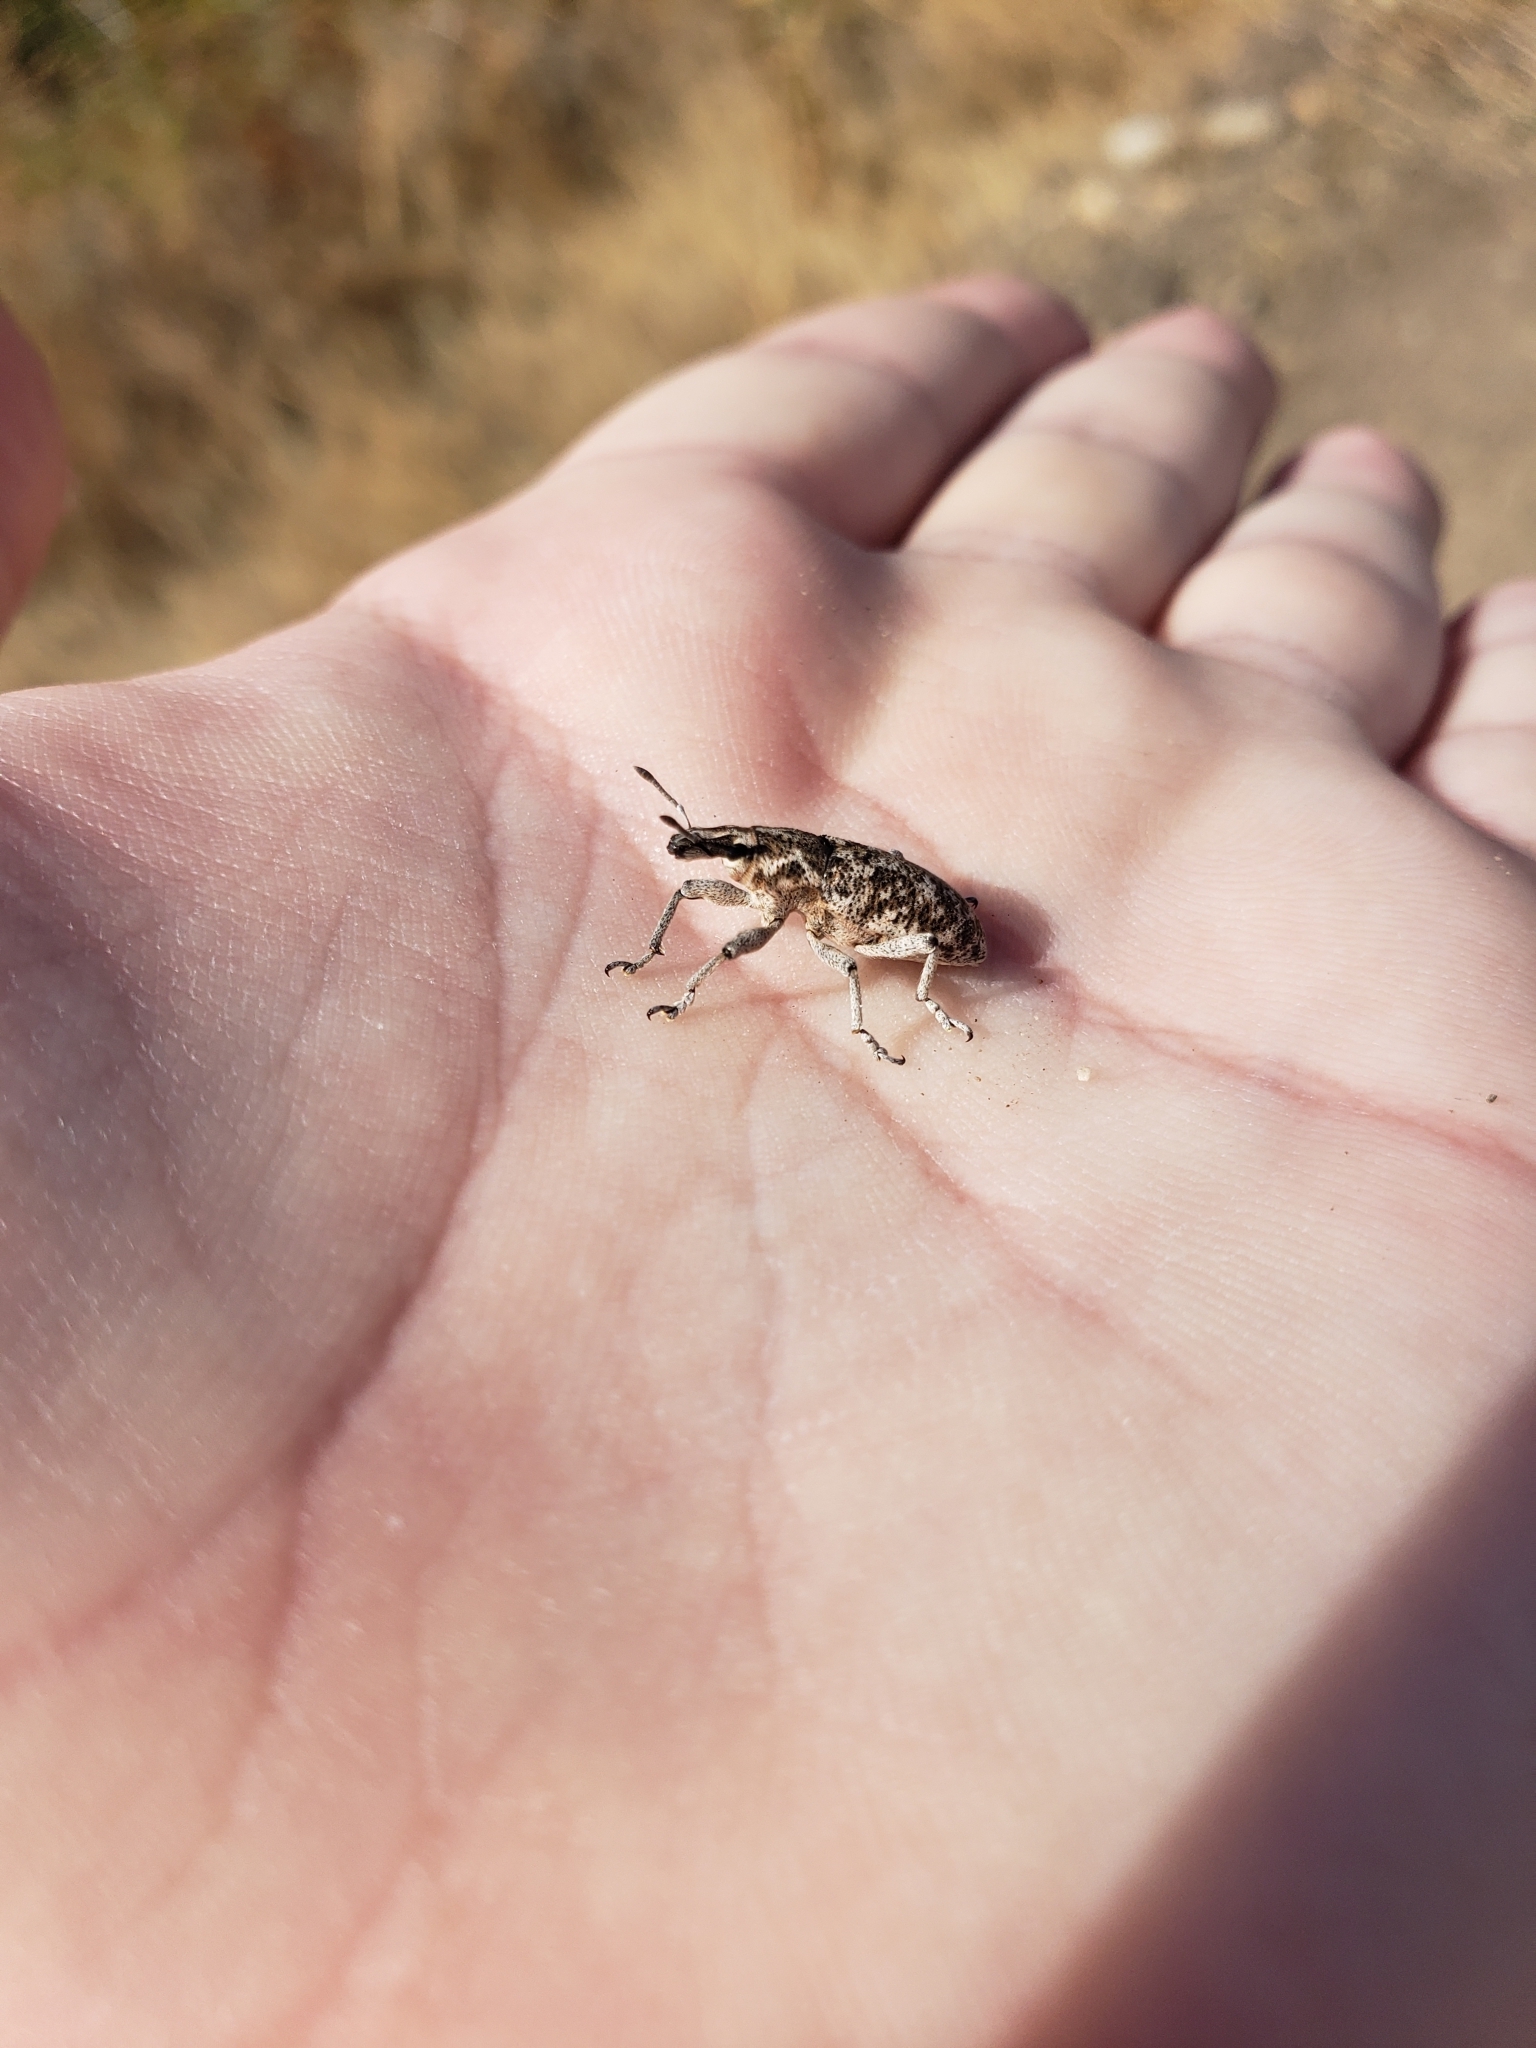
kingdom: Animalia
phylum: Arthropoda
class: Insecta
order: Coleoptera
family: Curculionidae
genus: Cleonus
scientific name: Cleonus achates
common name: Root weevil
